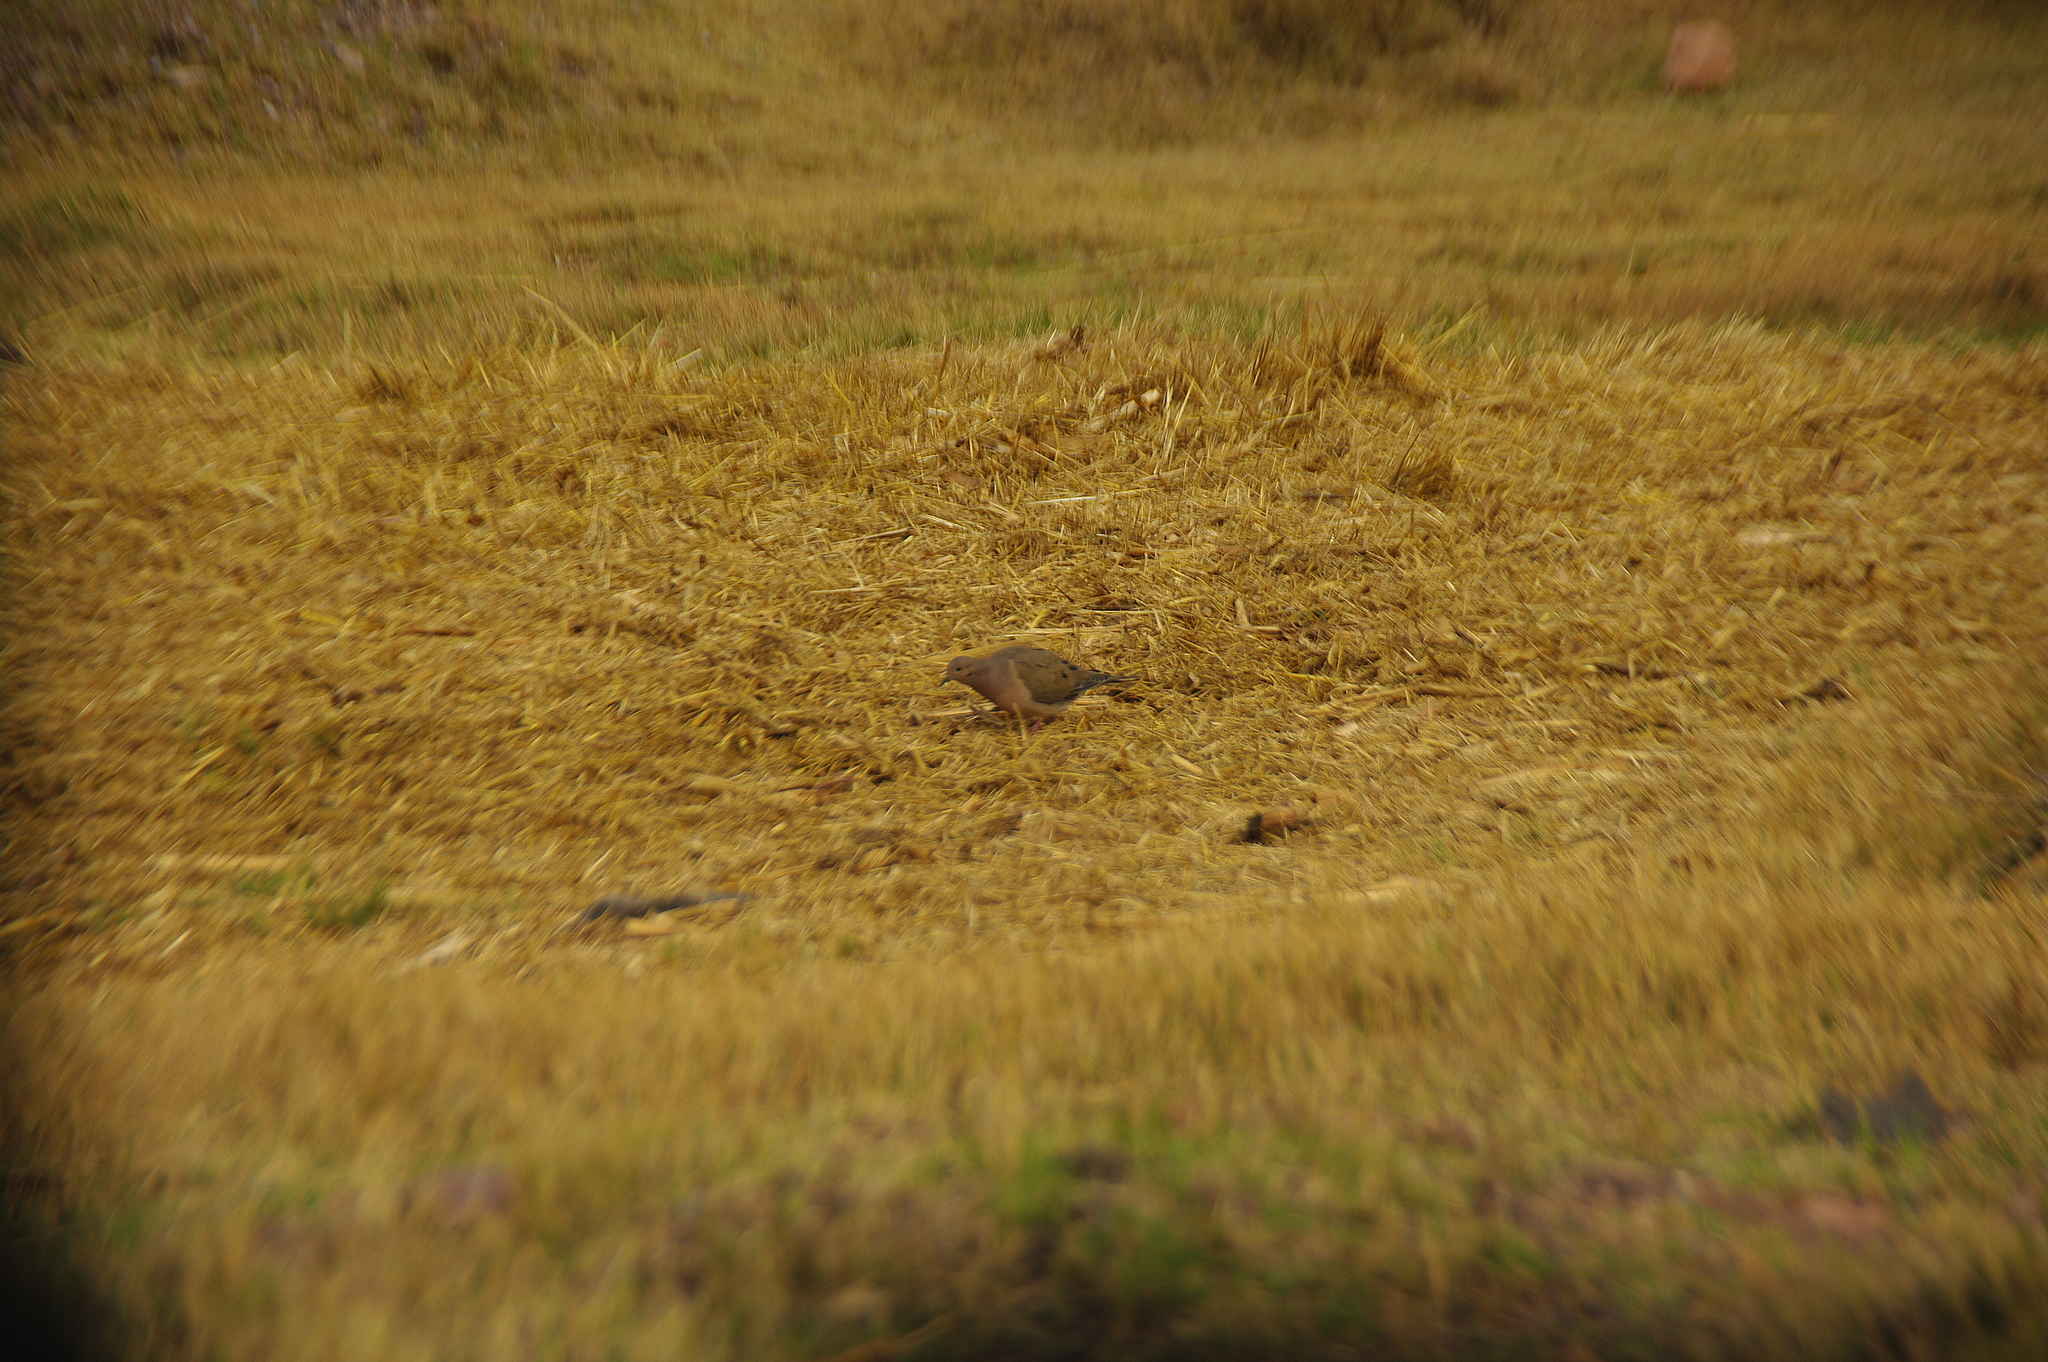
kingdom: Animalia
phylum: Chordata
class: Aves
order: Columbiformes
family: Columbidae
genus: Zenaida
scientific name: Zenaida auriculata
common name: Eared dove
